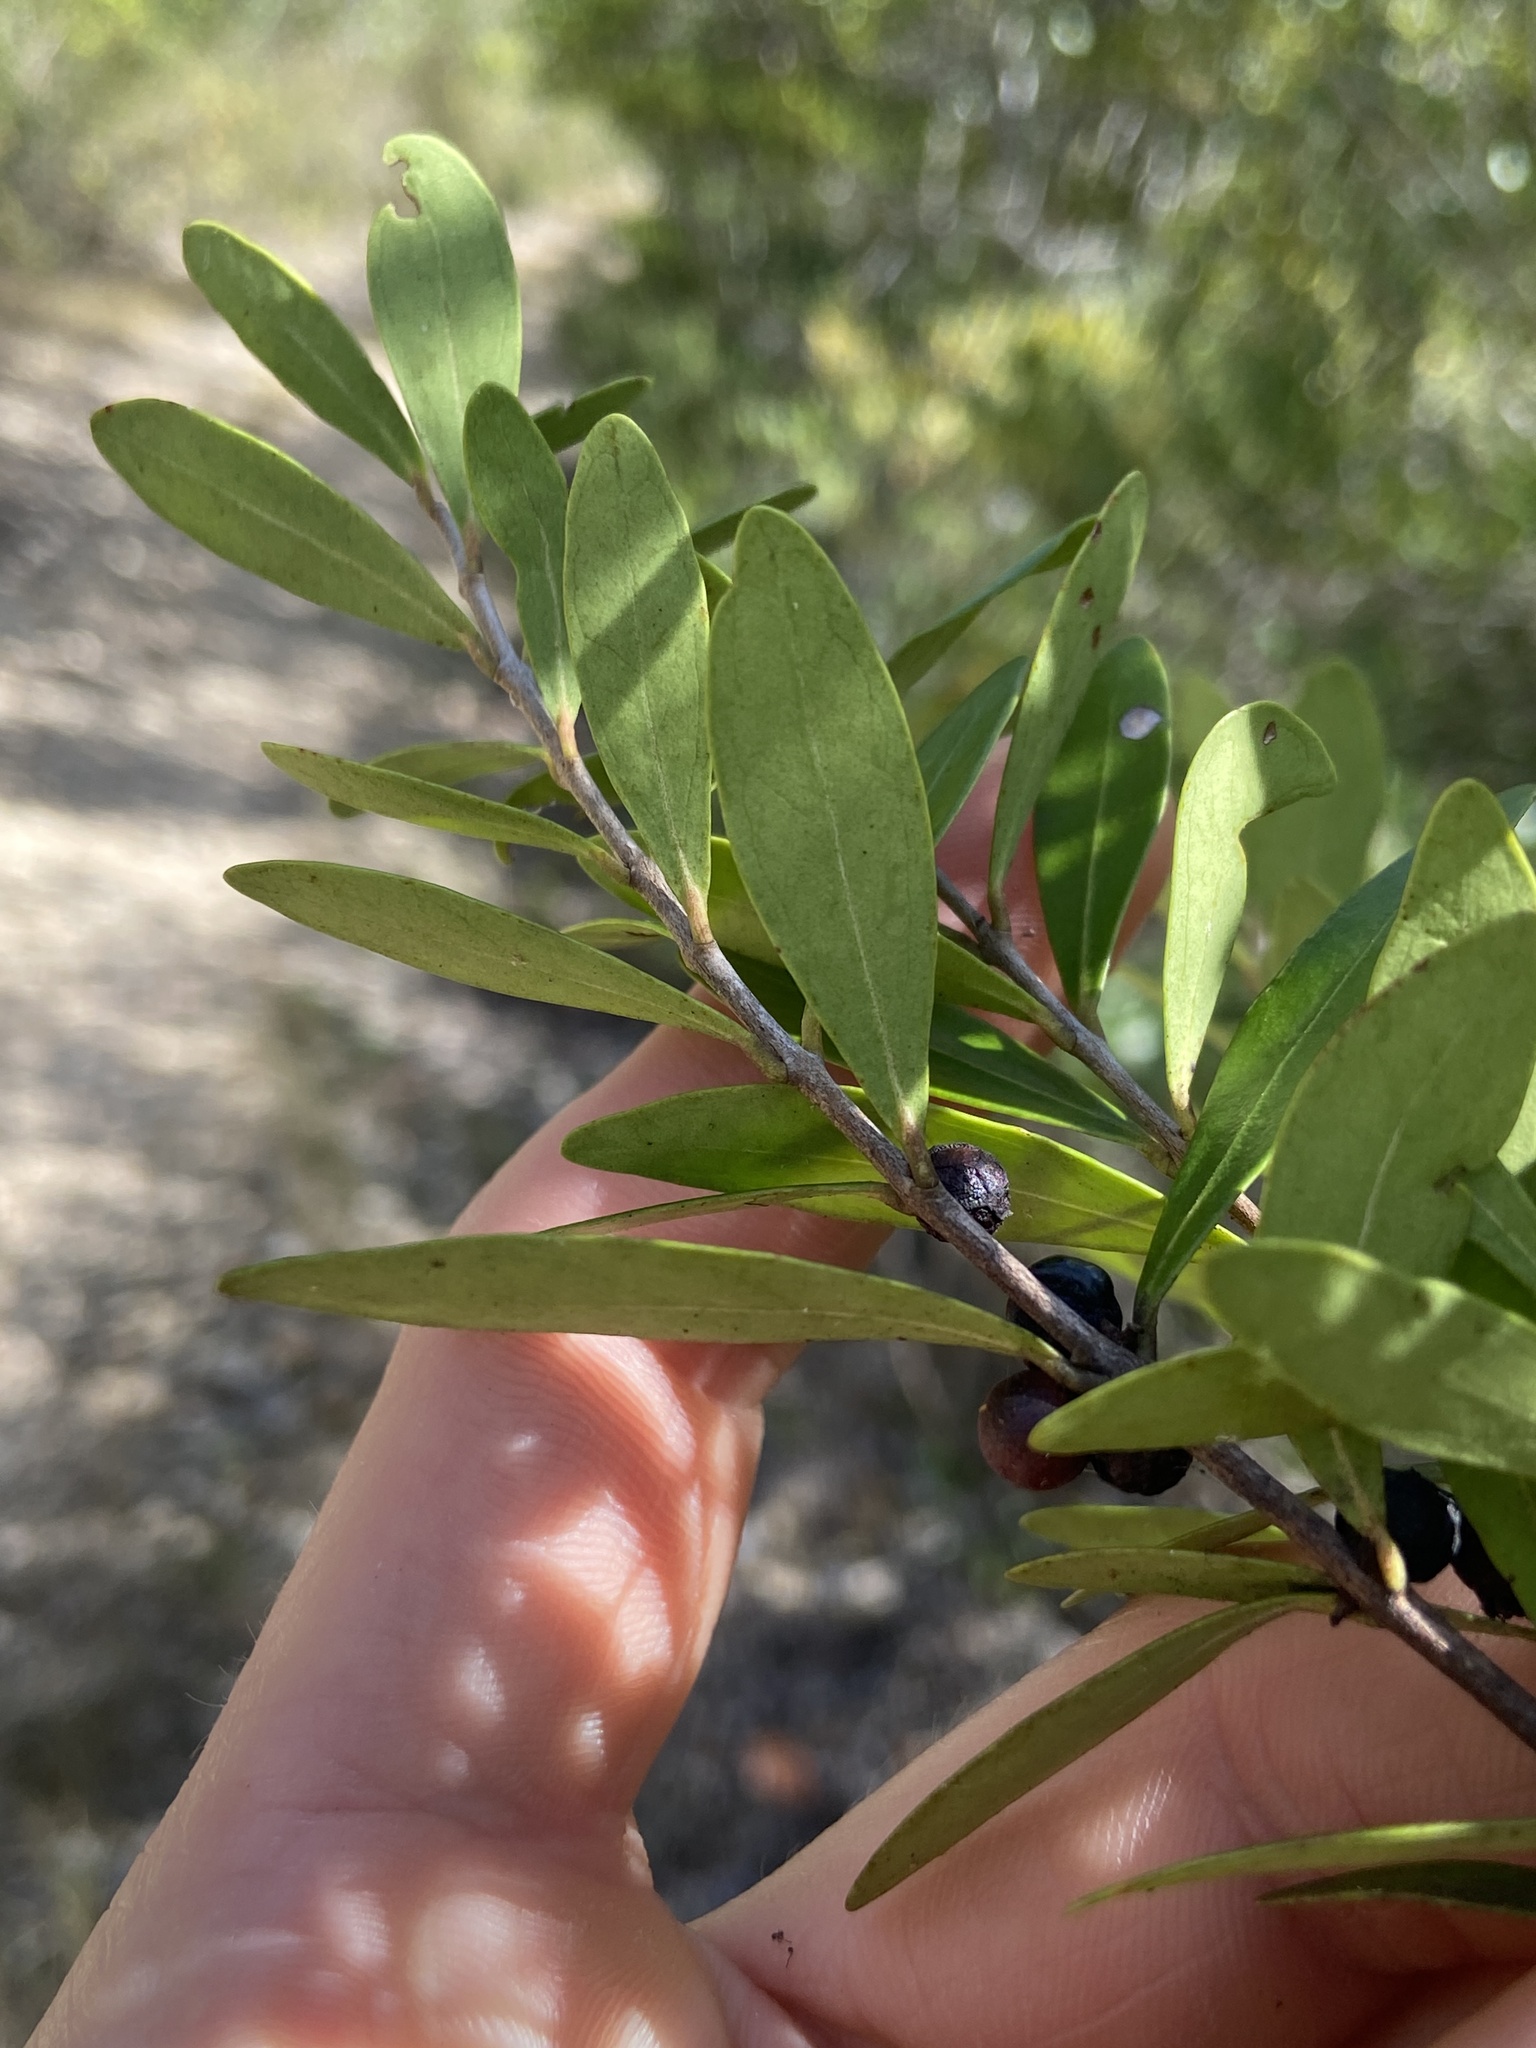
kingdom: Plantae
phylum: Tracheophyta
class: Magnoliopsida
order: Myrtales
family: Myrtaceae
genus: Eugenia
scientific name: Eugenia foetida
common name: White wattling
